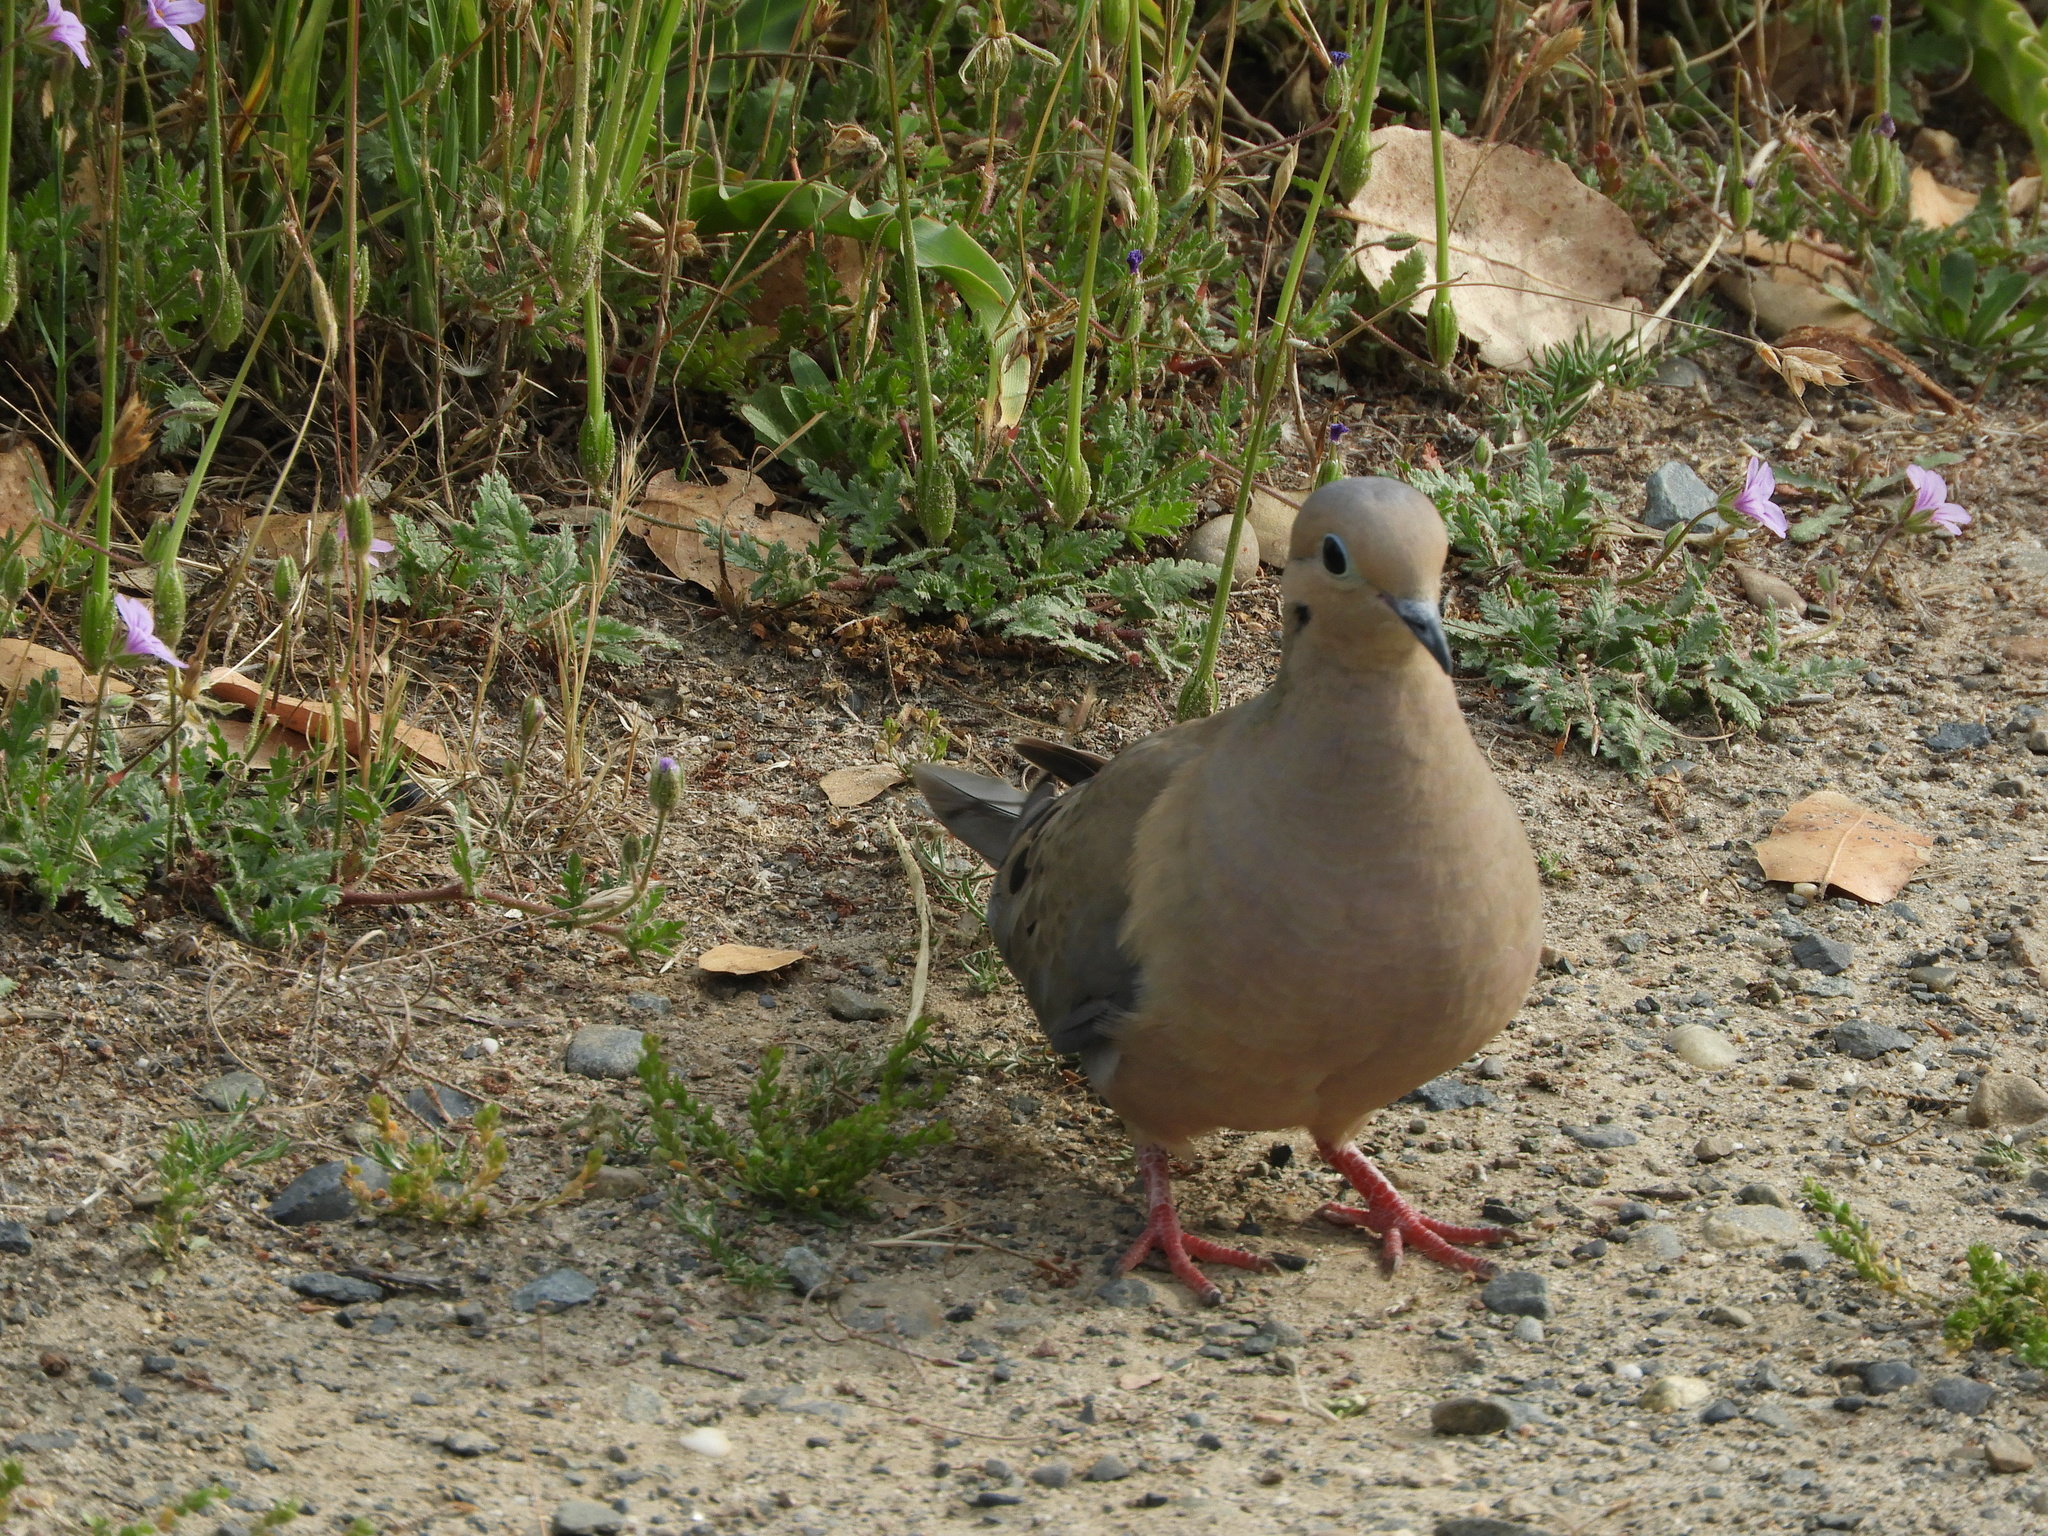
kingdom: Animalia
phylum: Chordata
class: Aves
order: Columbiformes
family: Columbidae
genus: Zenaida
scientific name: Zenaida macroura
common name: Mourning dove
